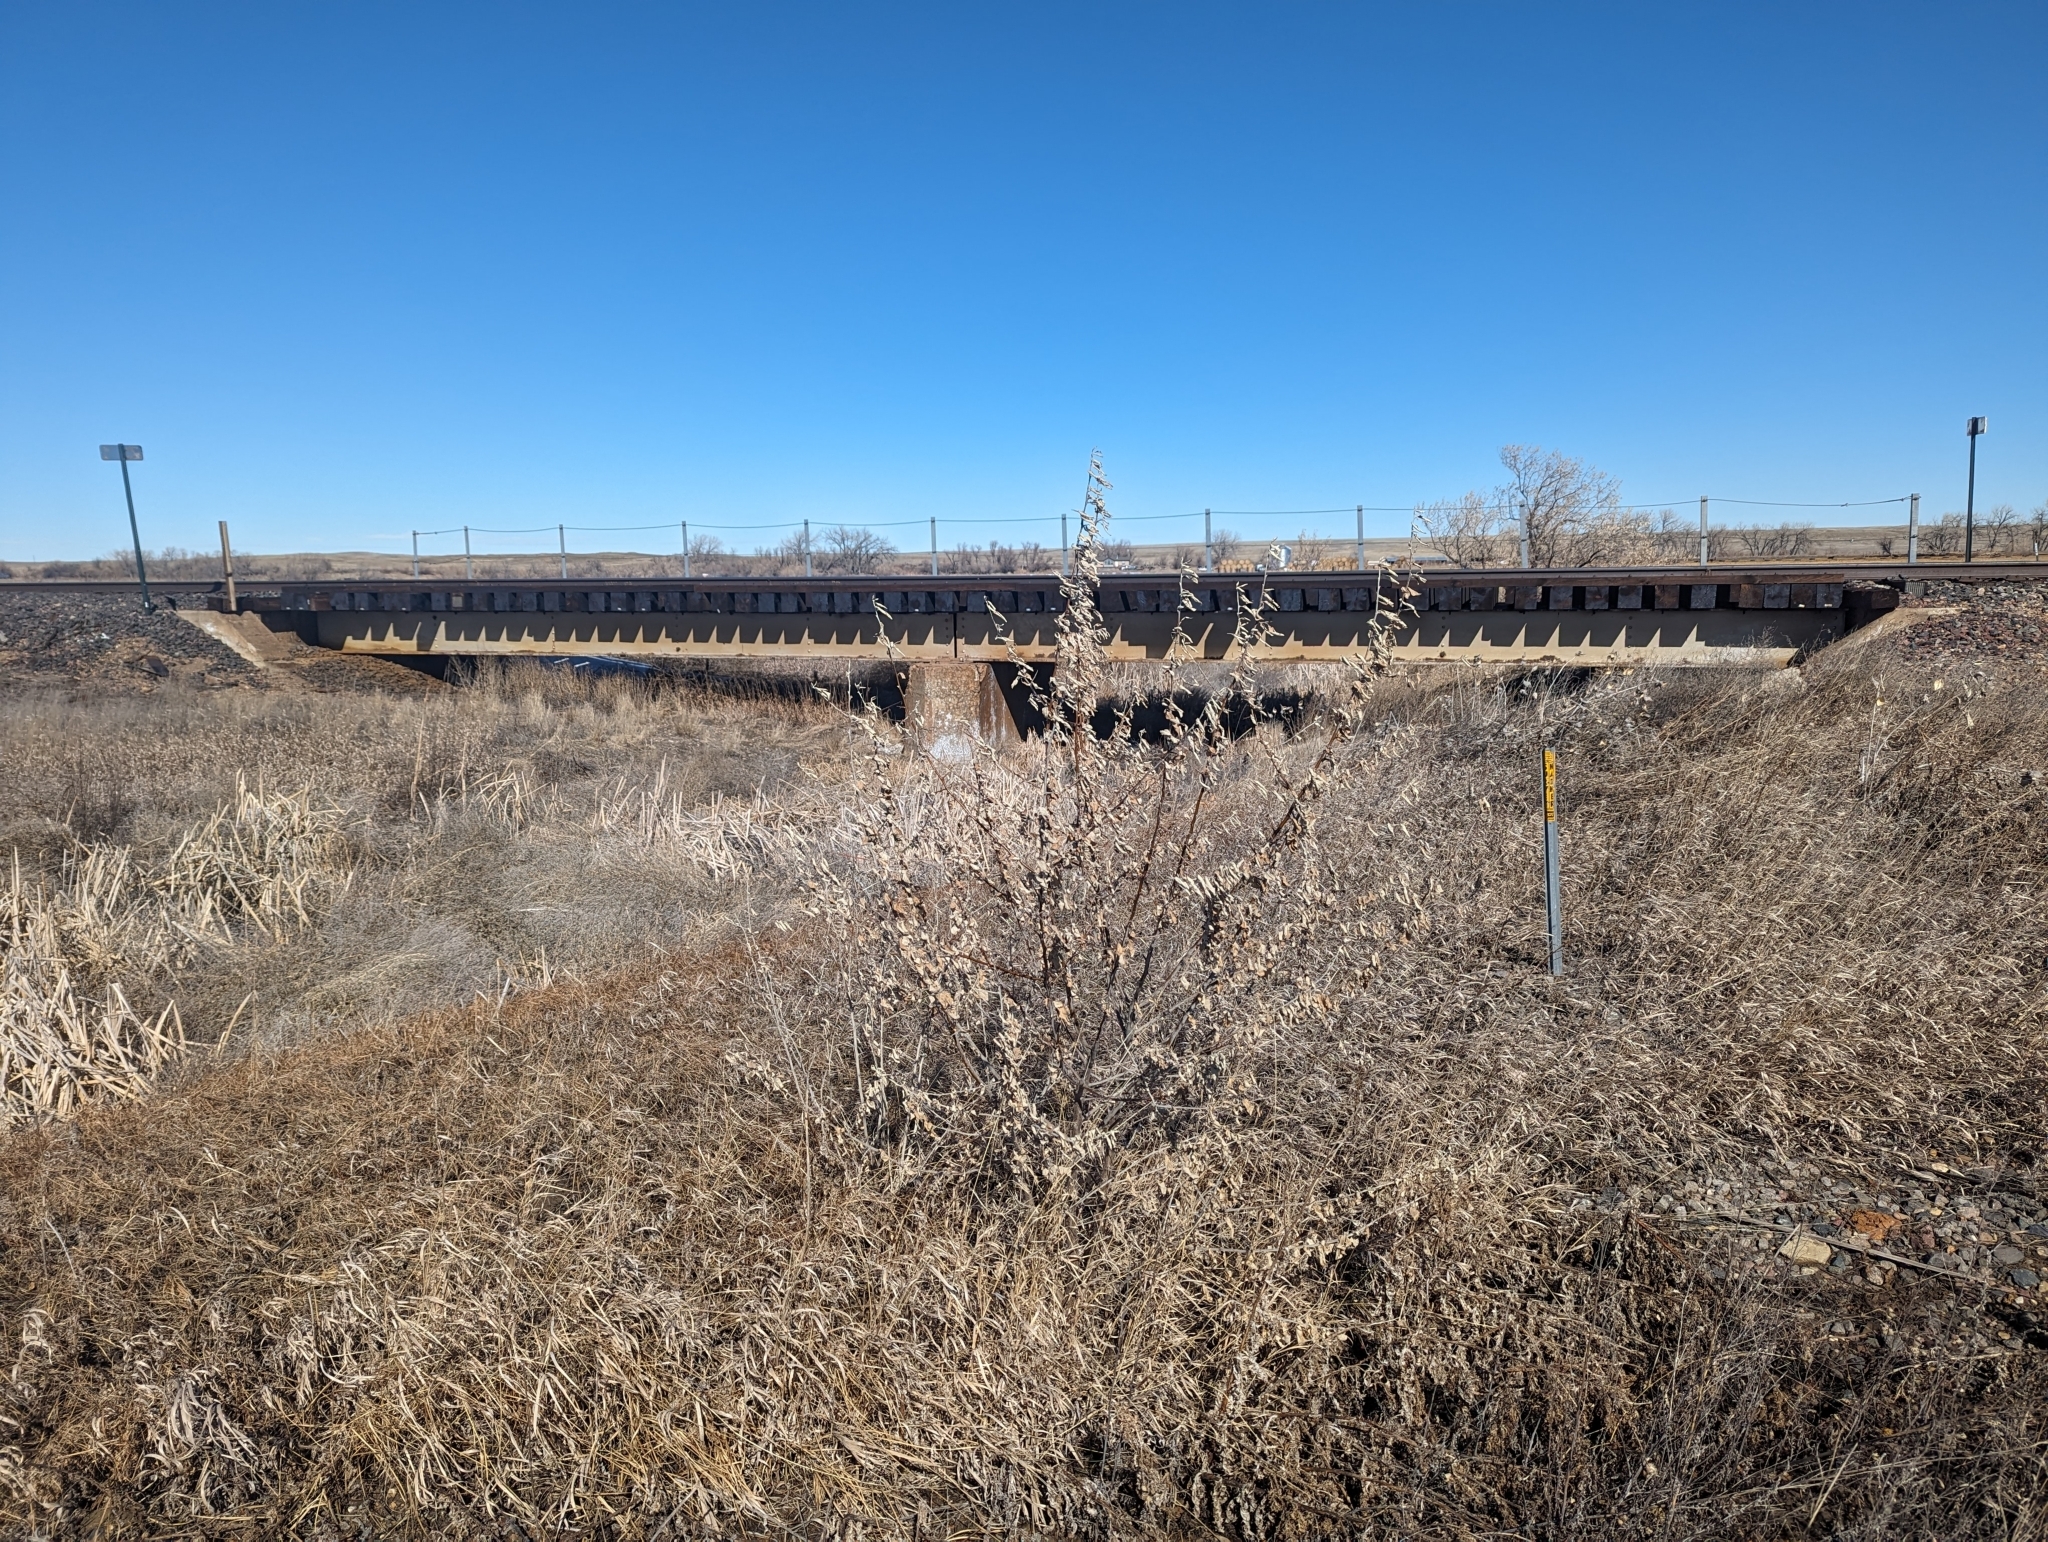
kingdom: Plantae
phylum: Tracheophyta
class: Magnoliopsida
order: Rosales
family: Elaeagnaceae
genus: Shepherdia
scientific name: Shepherdia argentea
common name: Silver buffaloberry
